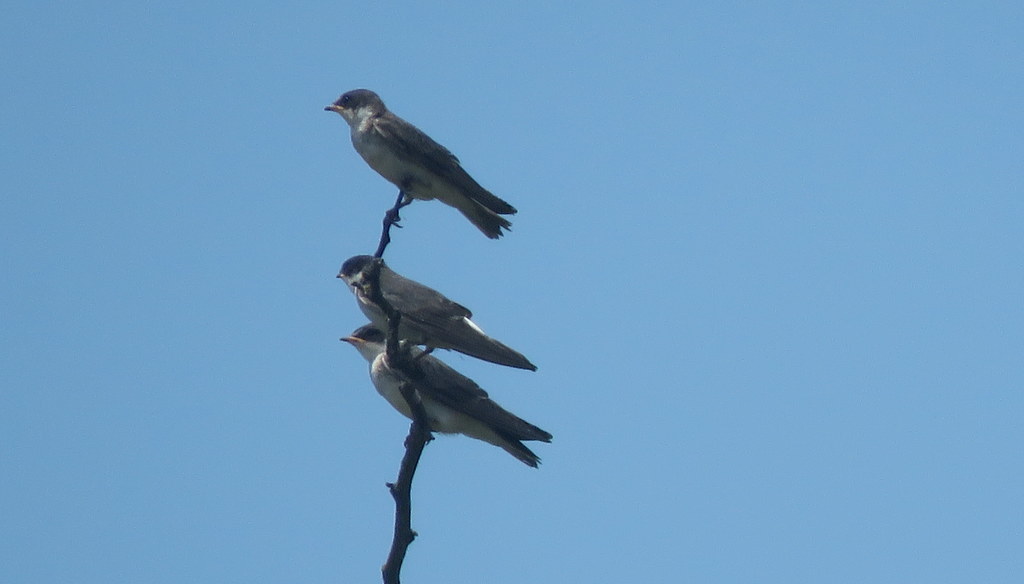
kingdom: Animalia
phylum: Chordata
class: Aves
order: Passeriformes
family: Hirundinidae
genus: Tachycineta
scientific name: Tachycineta leucorrhoa
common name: White-rumped swallow
